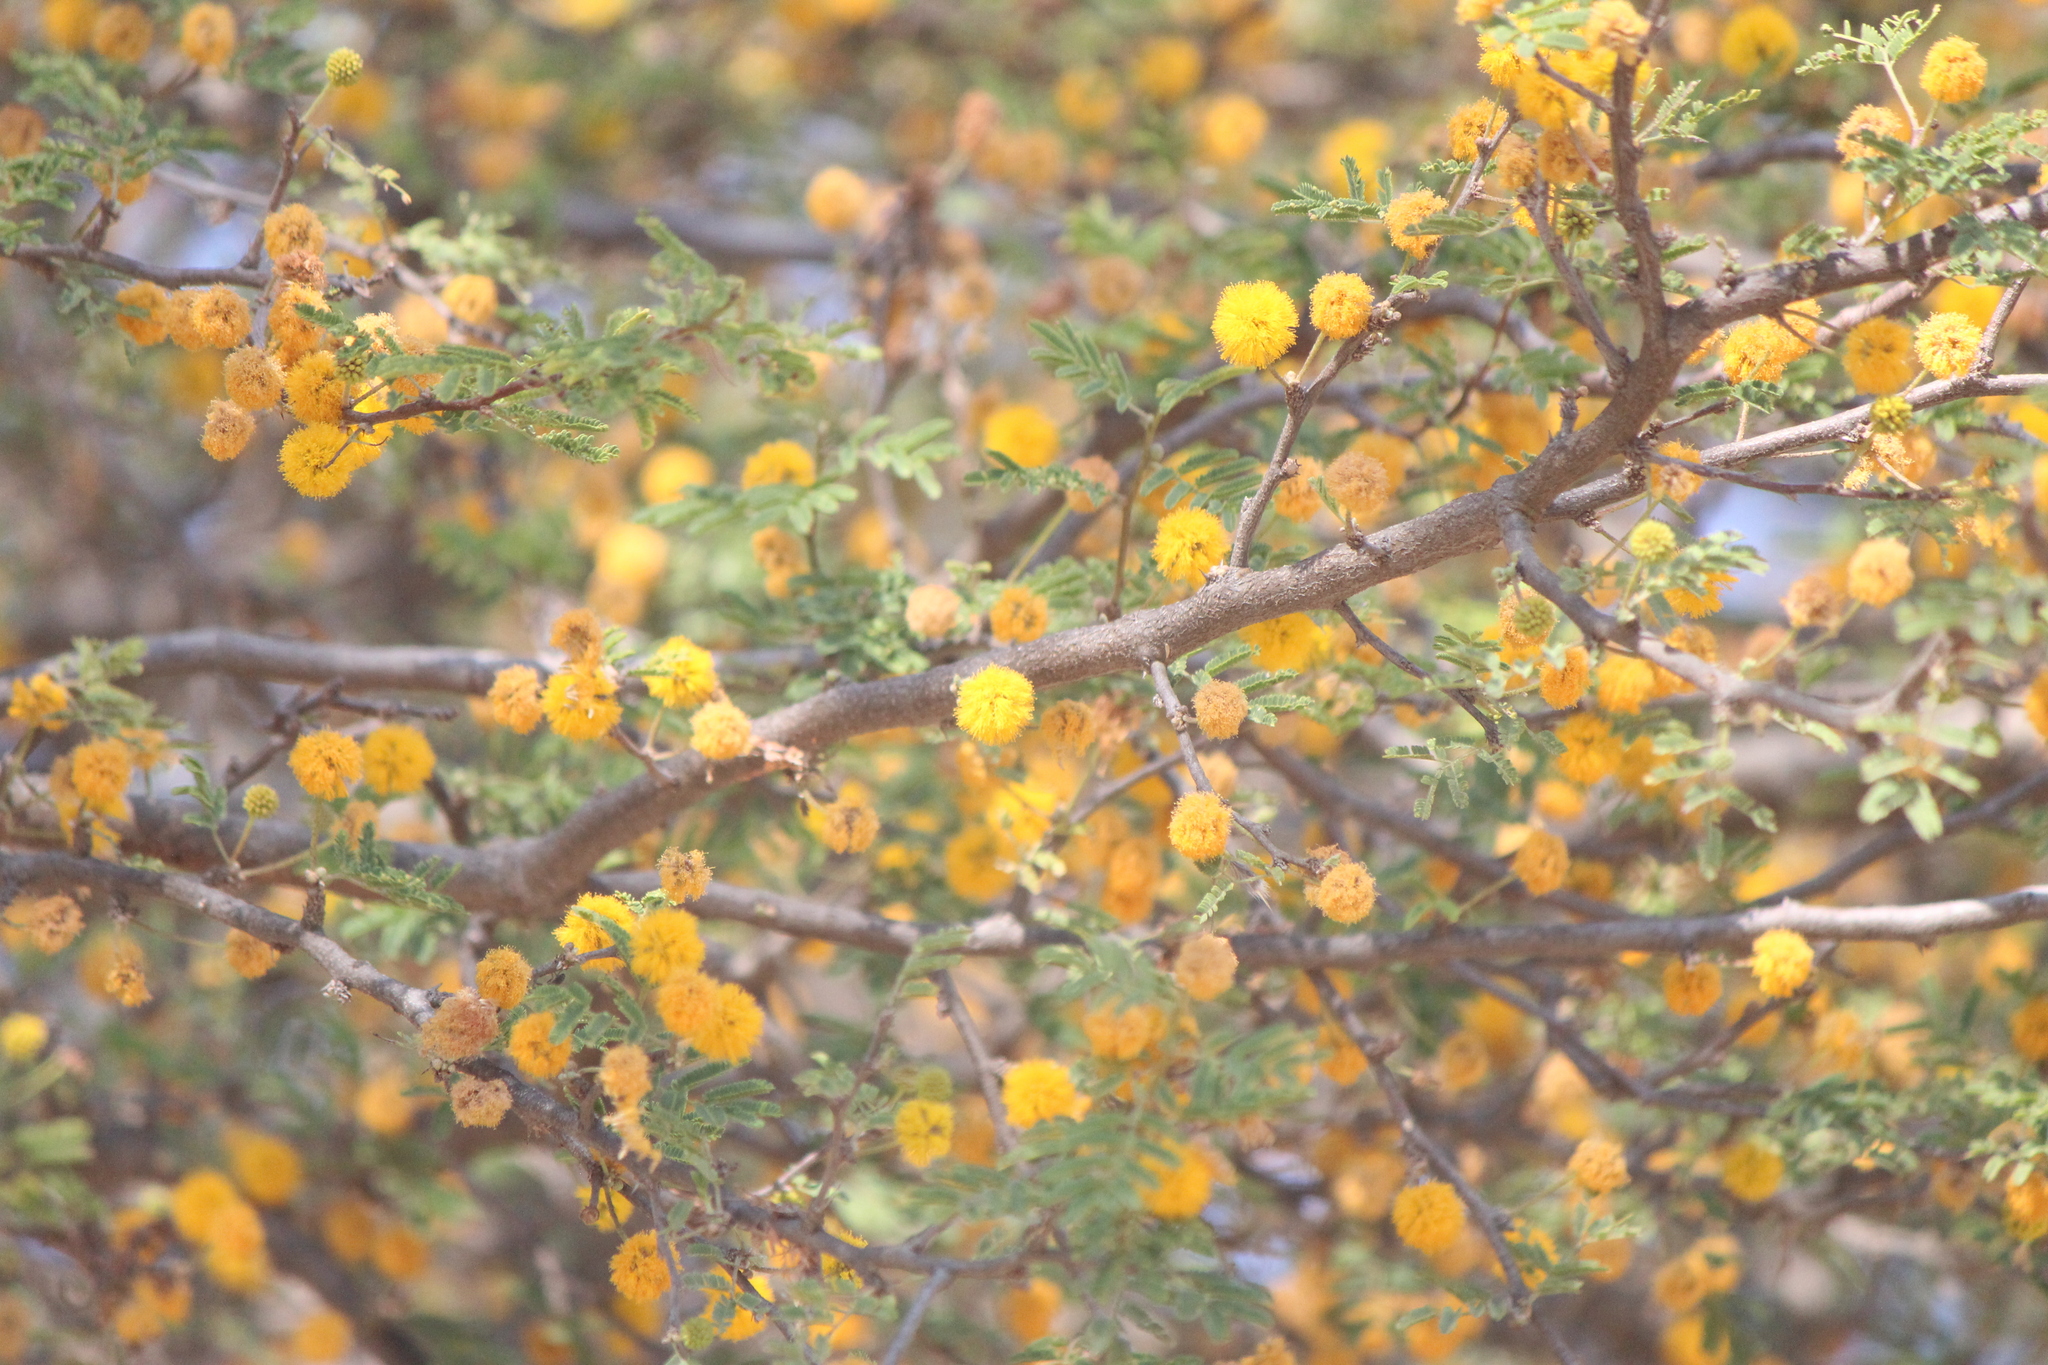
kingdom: Plantae
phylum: Tracheophyta
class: Magnoliopsida
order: Fabales
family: Fabaceae
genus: Vachellia
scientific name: Vachellia farnesiana
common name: Sweet acacia
